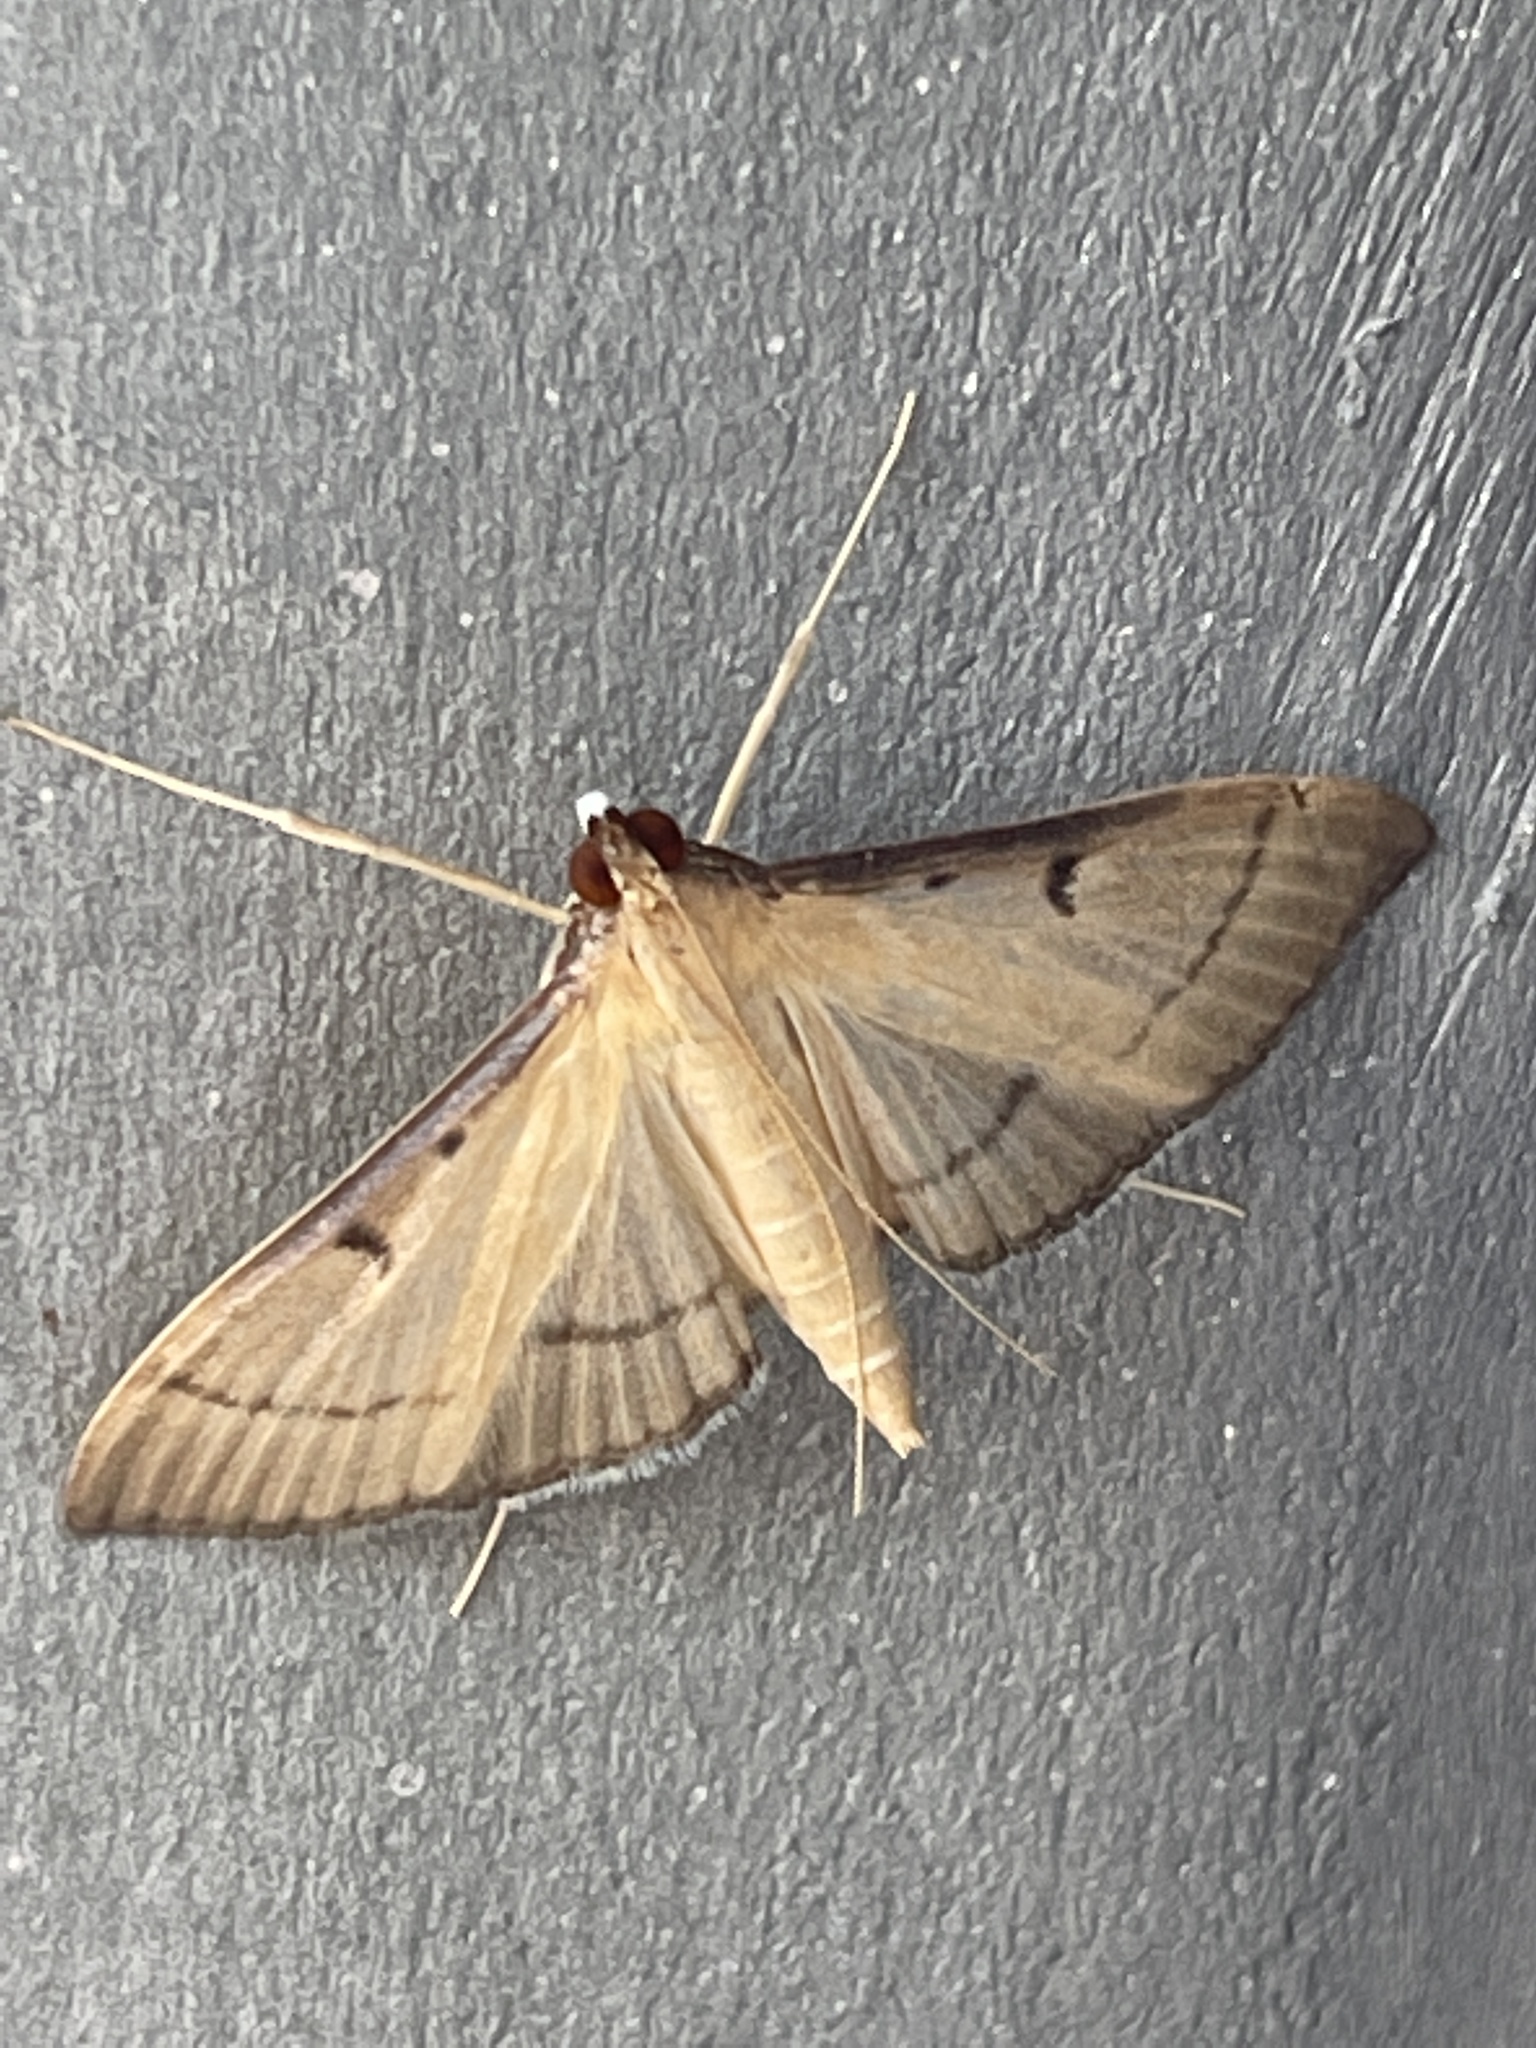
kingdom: Animalia
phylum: Arthropoda
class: Insecta
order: Lepidoptera
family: Crambidae
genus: Bradina
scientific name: Bradina admixtalis
